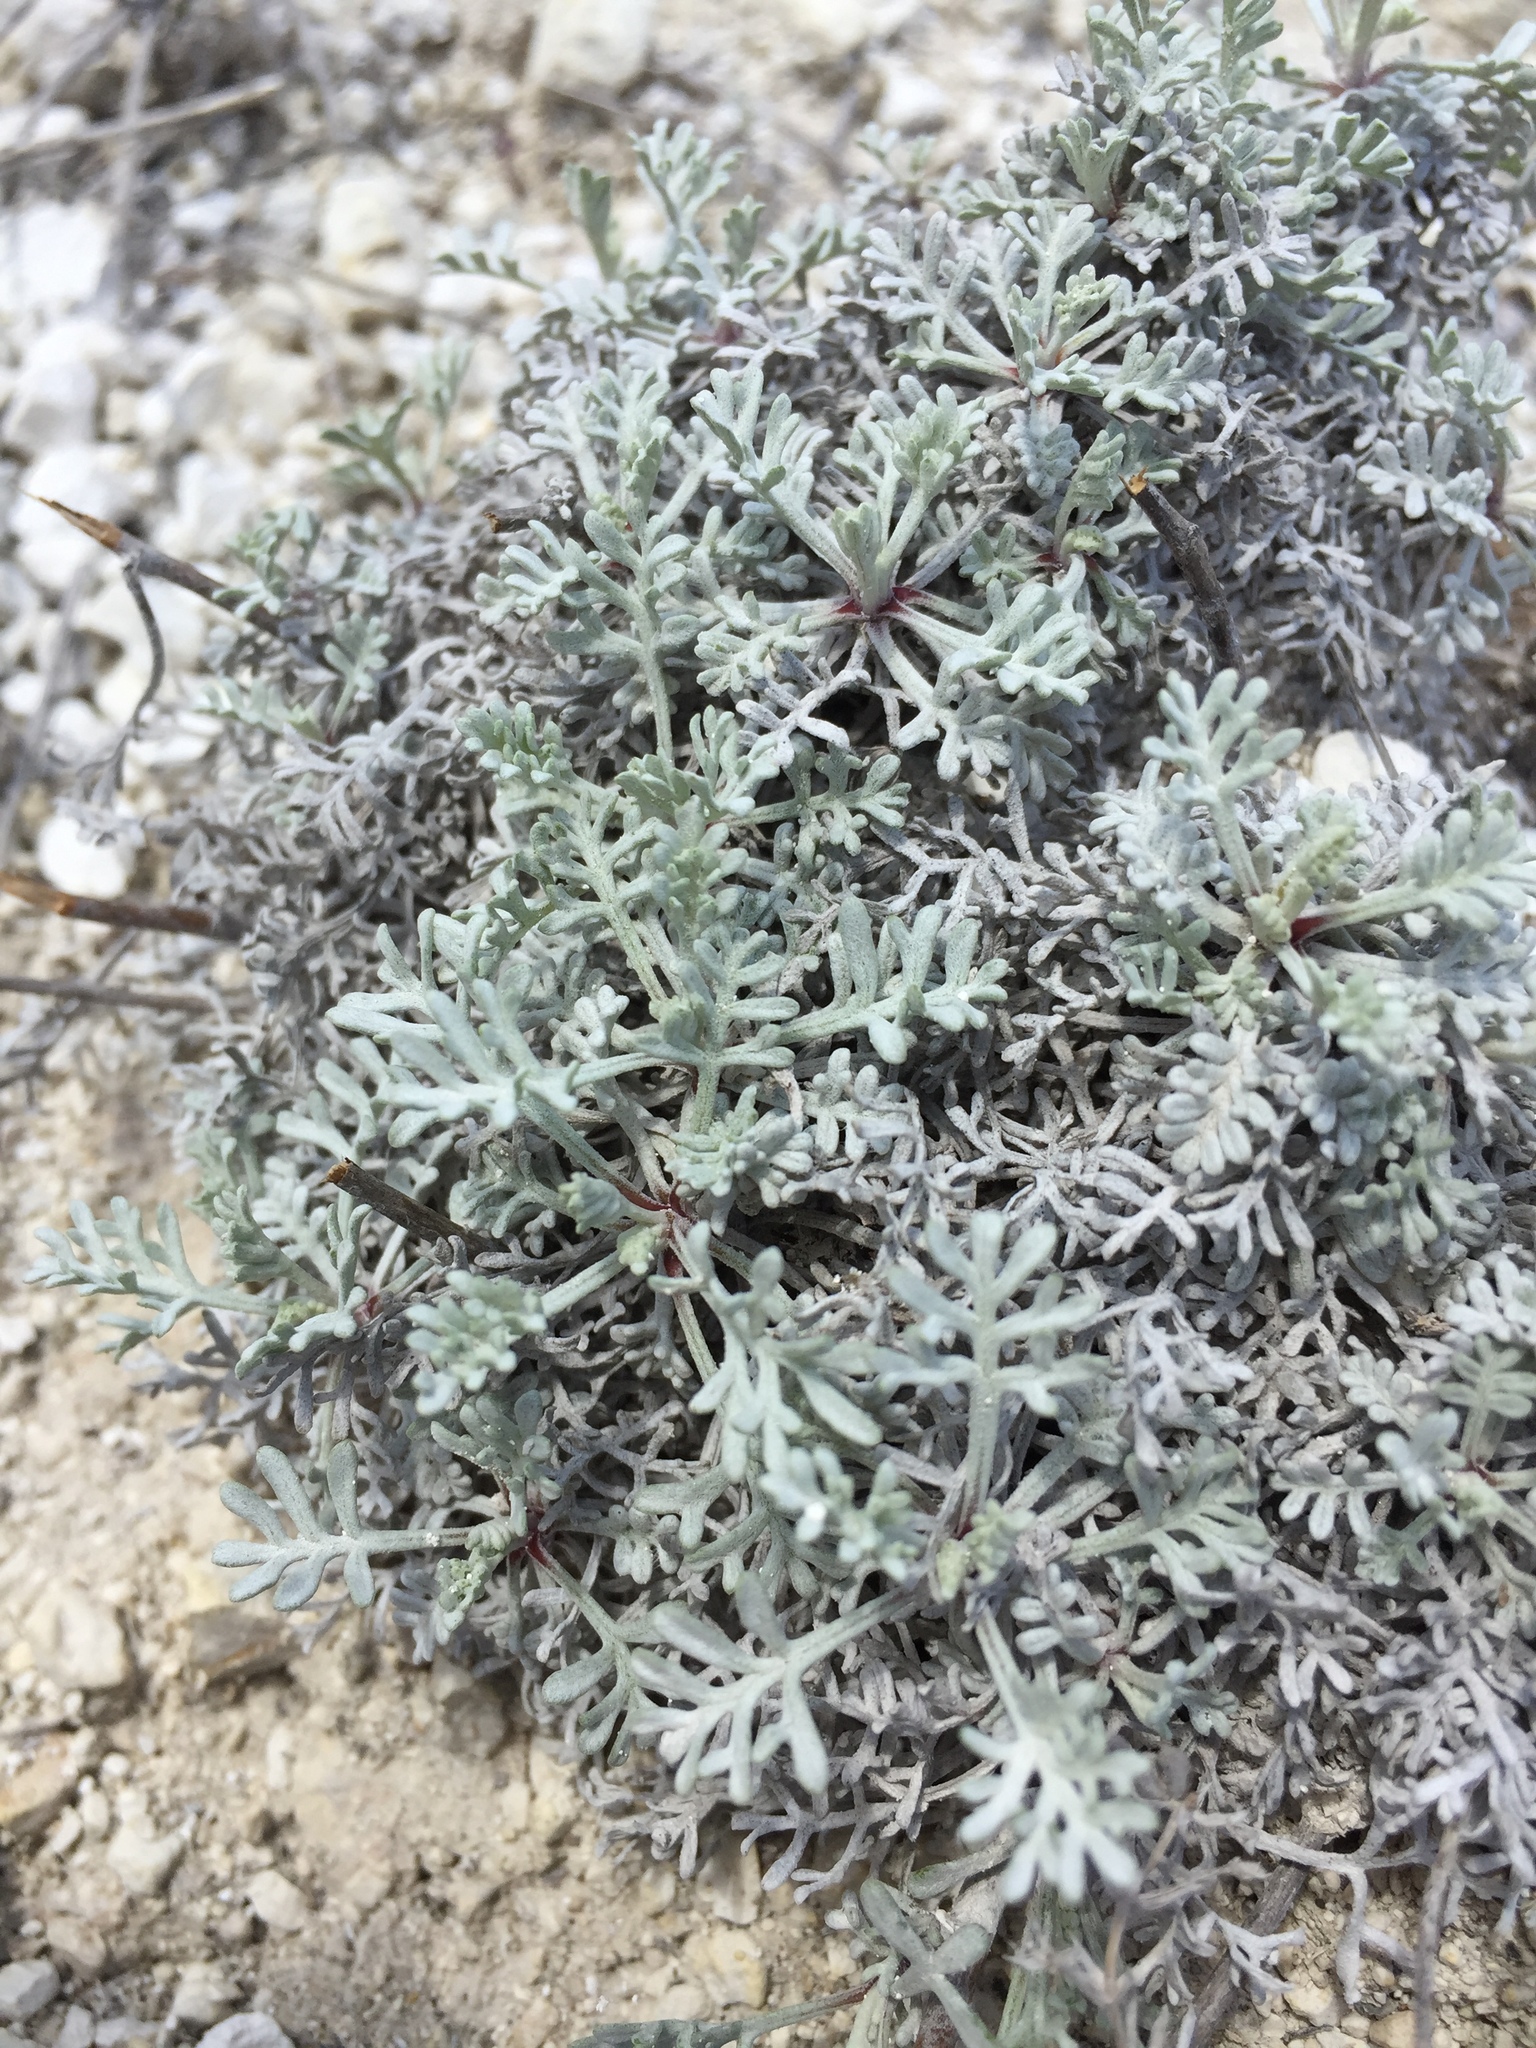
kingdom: Plantae
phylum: Tracheophyta
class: Magnoliopsida
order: Asterales
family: Asteraceae
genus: Artemisia
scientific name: Artemisia hololeuca
